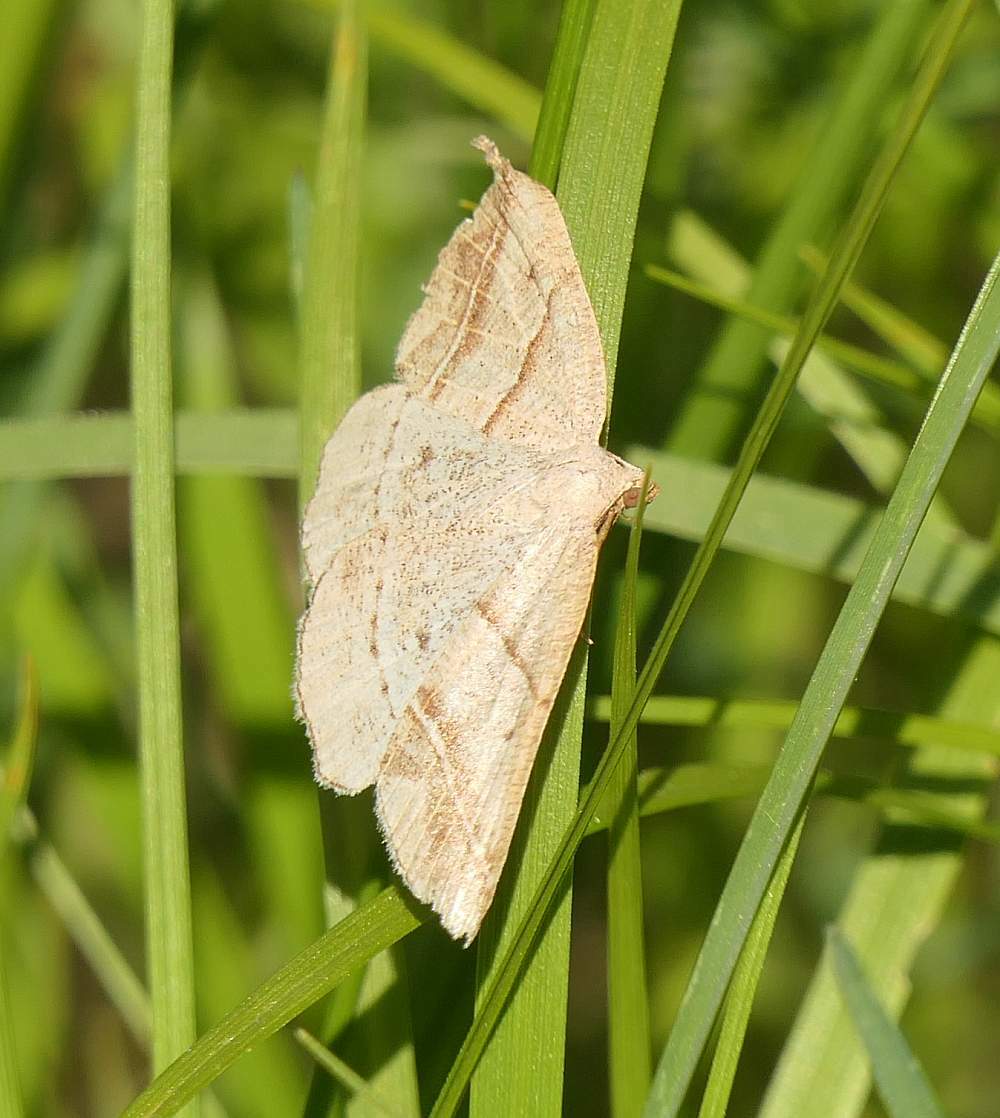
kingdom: Animalia
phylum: Arthropoda
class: Insecta
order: Lepidoptera
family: Pterophoridae
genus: Pterophorus
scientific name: Pterophorus Petrophora subaequaria
